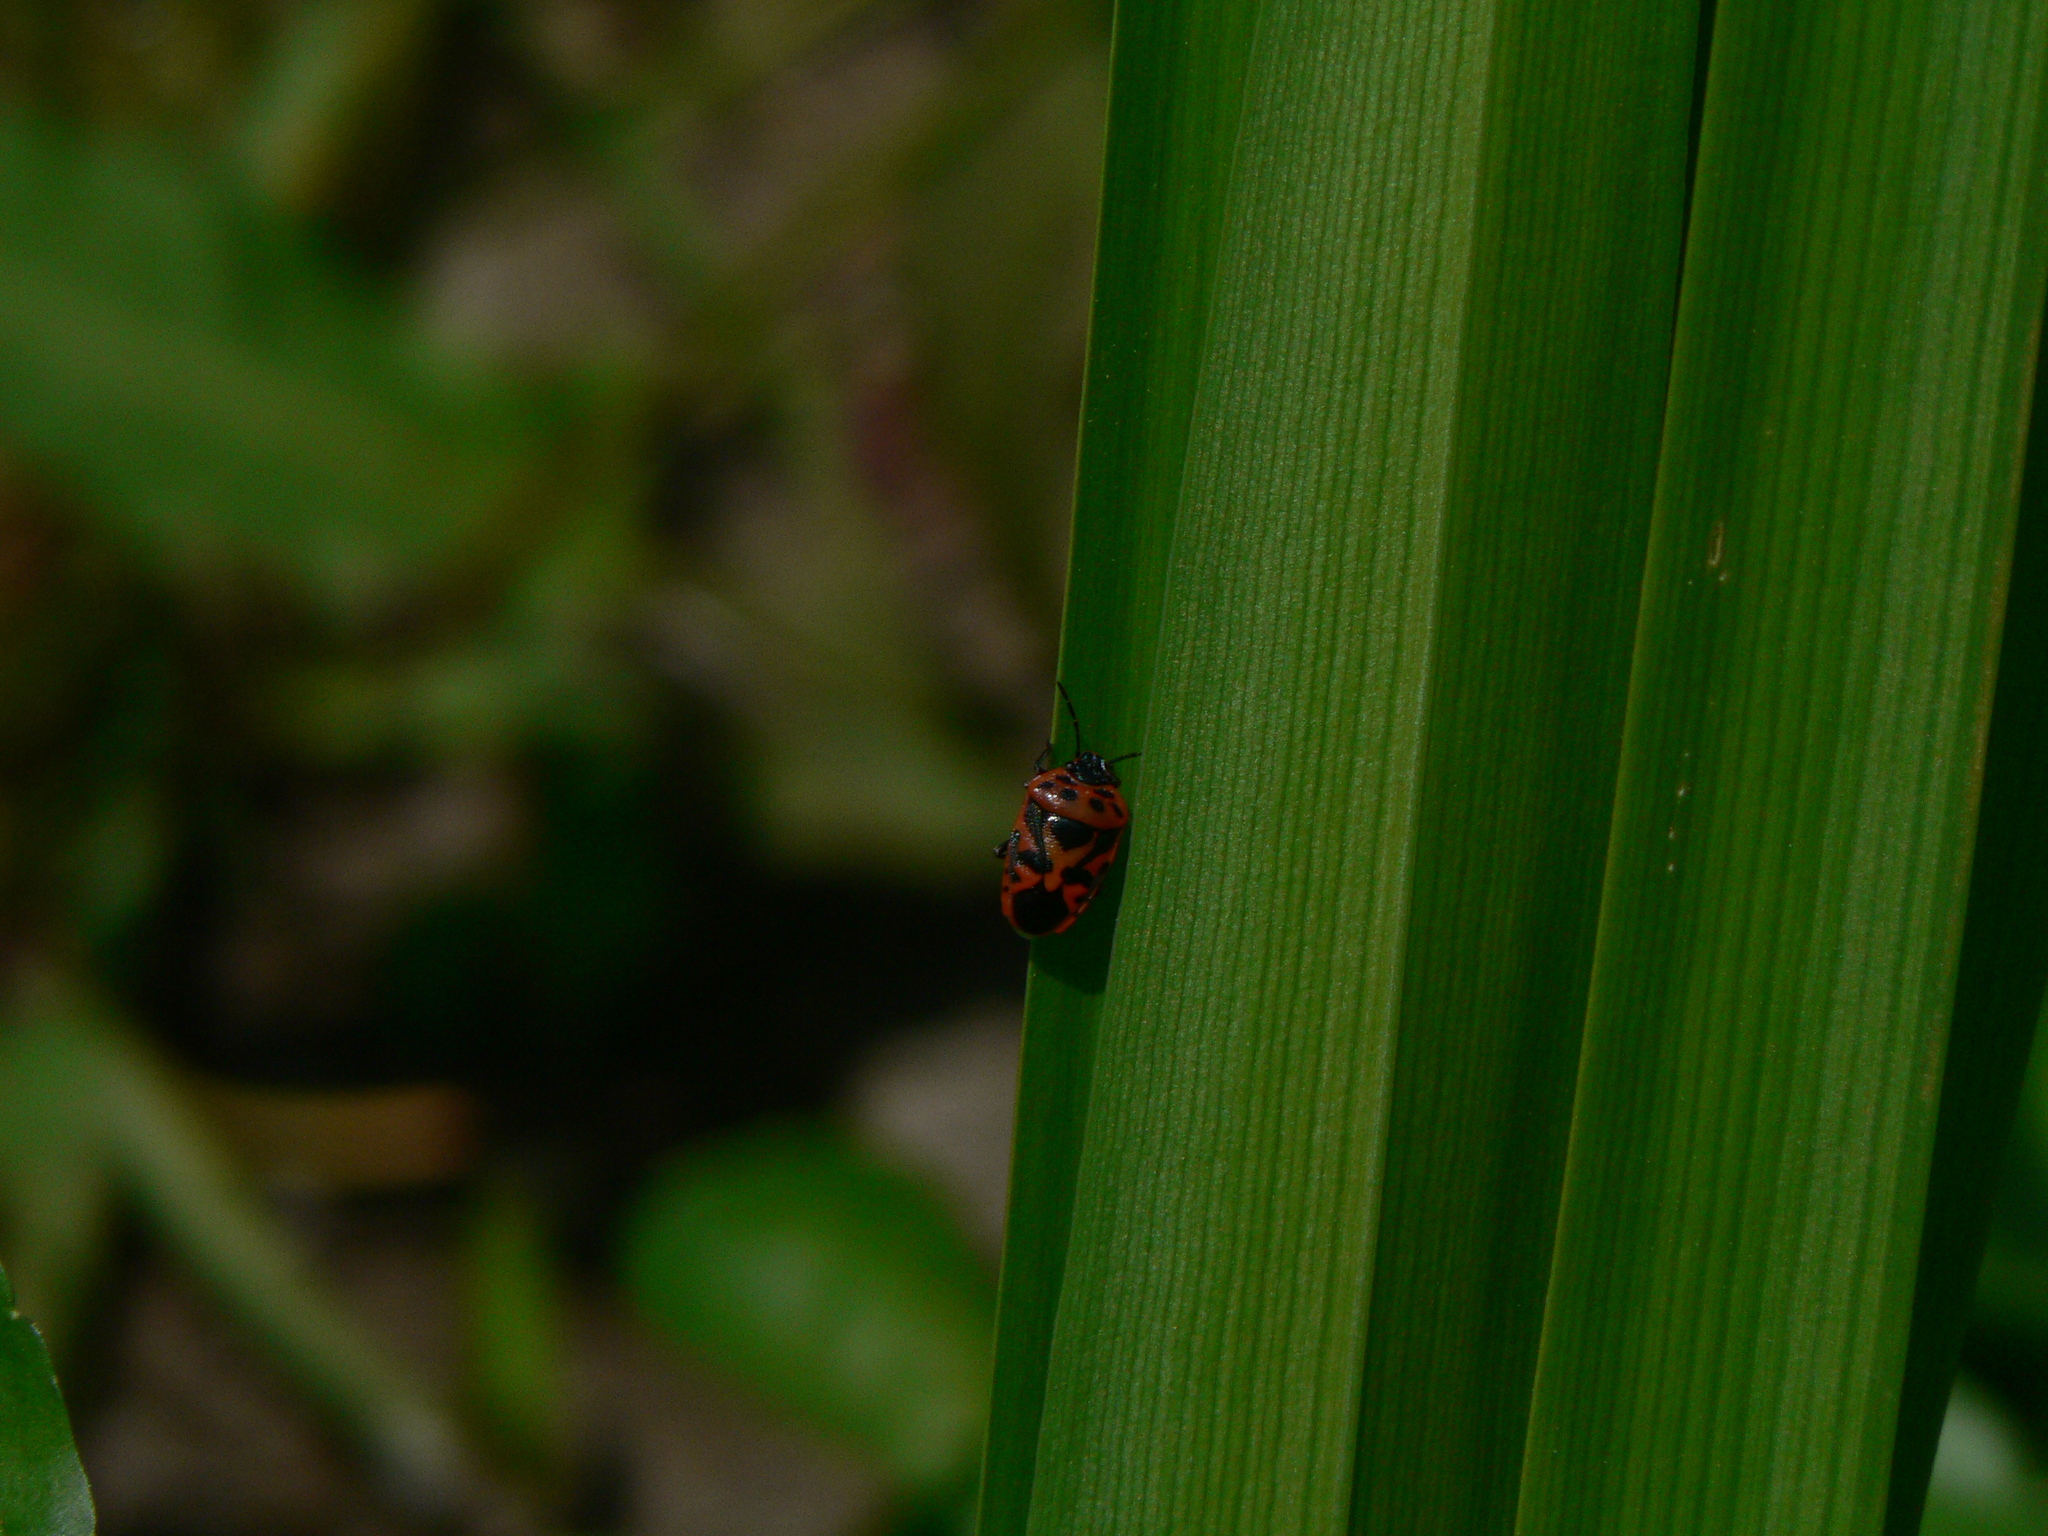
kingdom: Animalia
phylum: Arthropoda
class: Insecta
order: Hemiptera
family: Pentatomidae
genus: Eurydema
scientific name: Eurydema ornata
